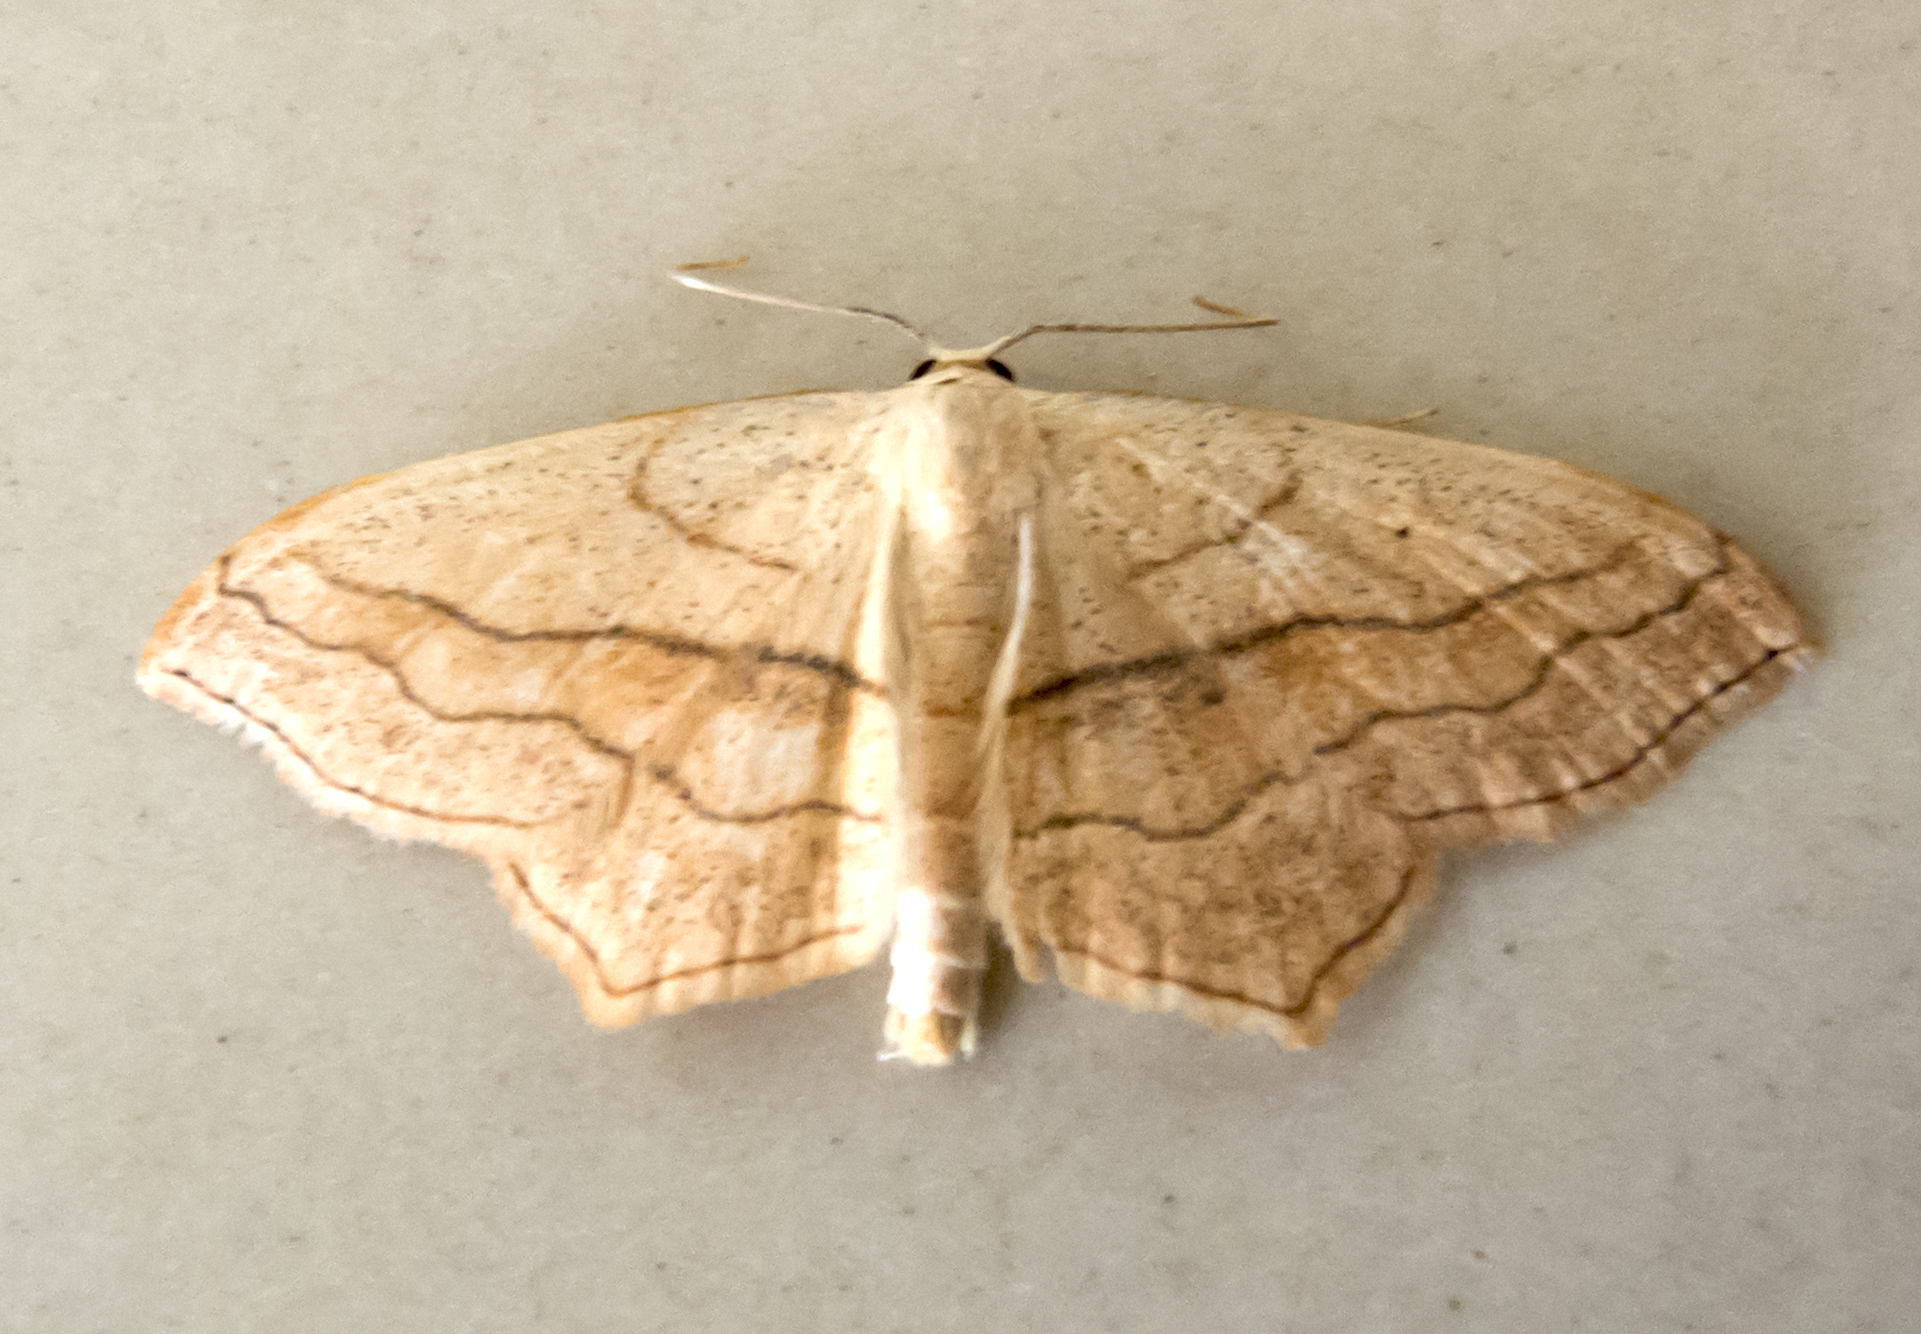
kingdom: Animalia
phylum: Arthropoda
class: Insecta
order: Lepidoptera
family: Geometridae
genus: Scopula
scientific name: Scopula imitaria
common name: Small blood-vein
